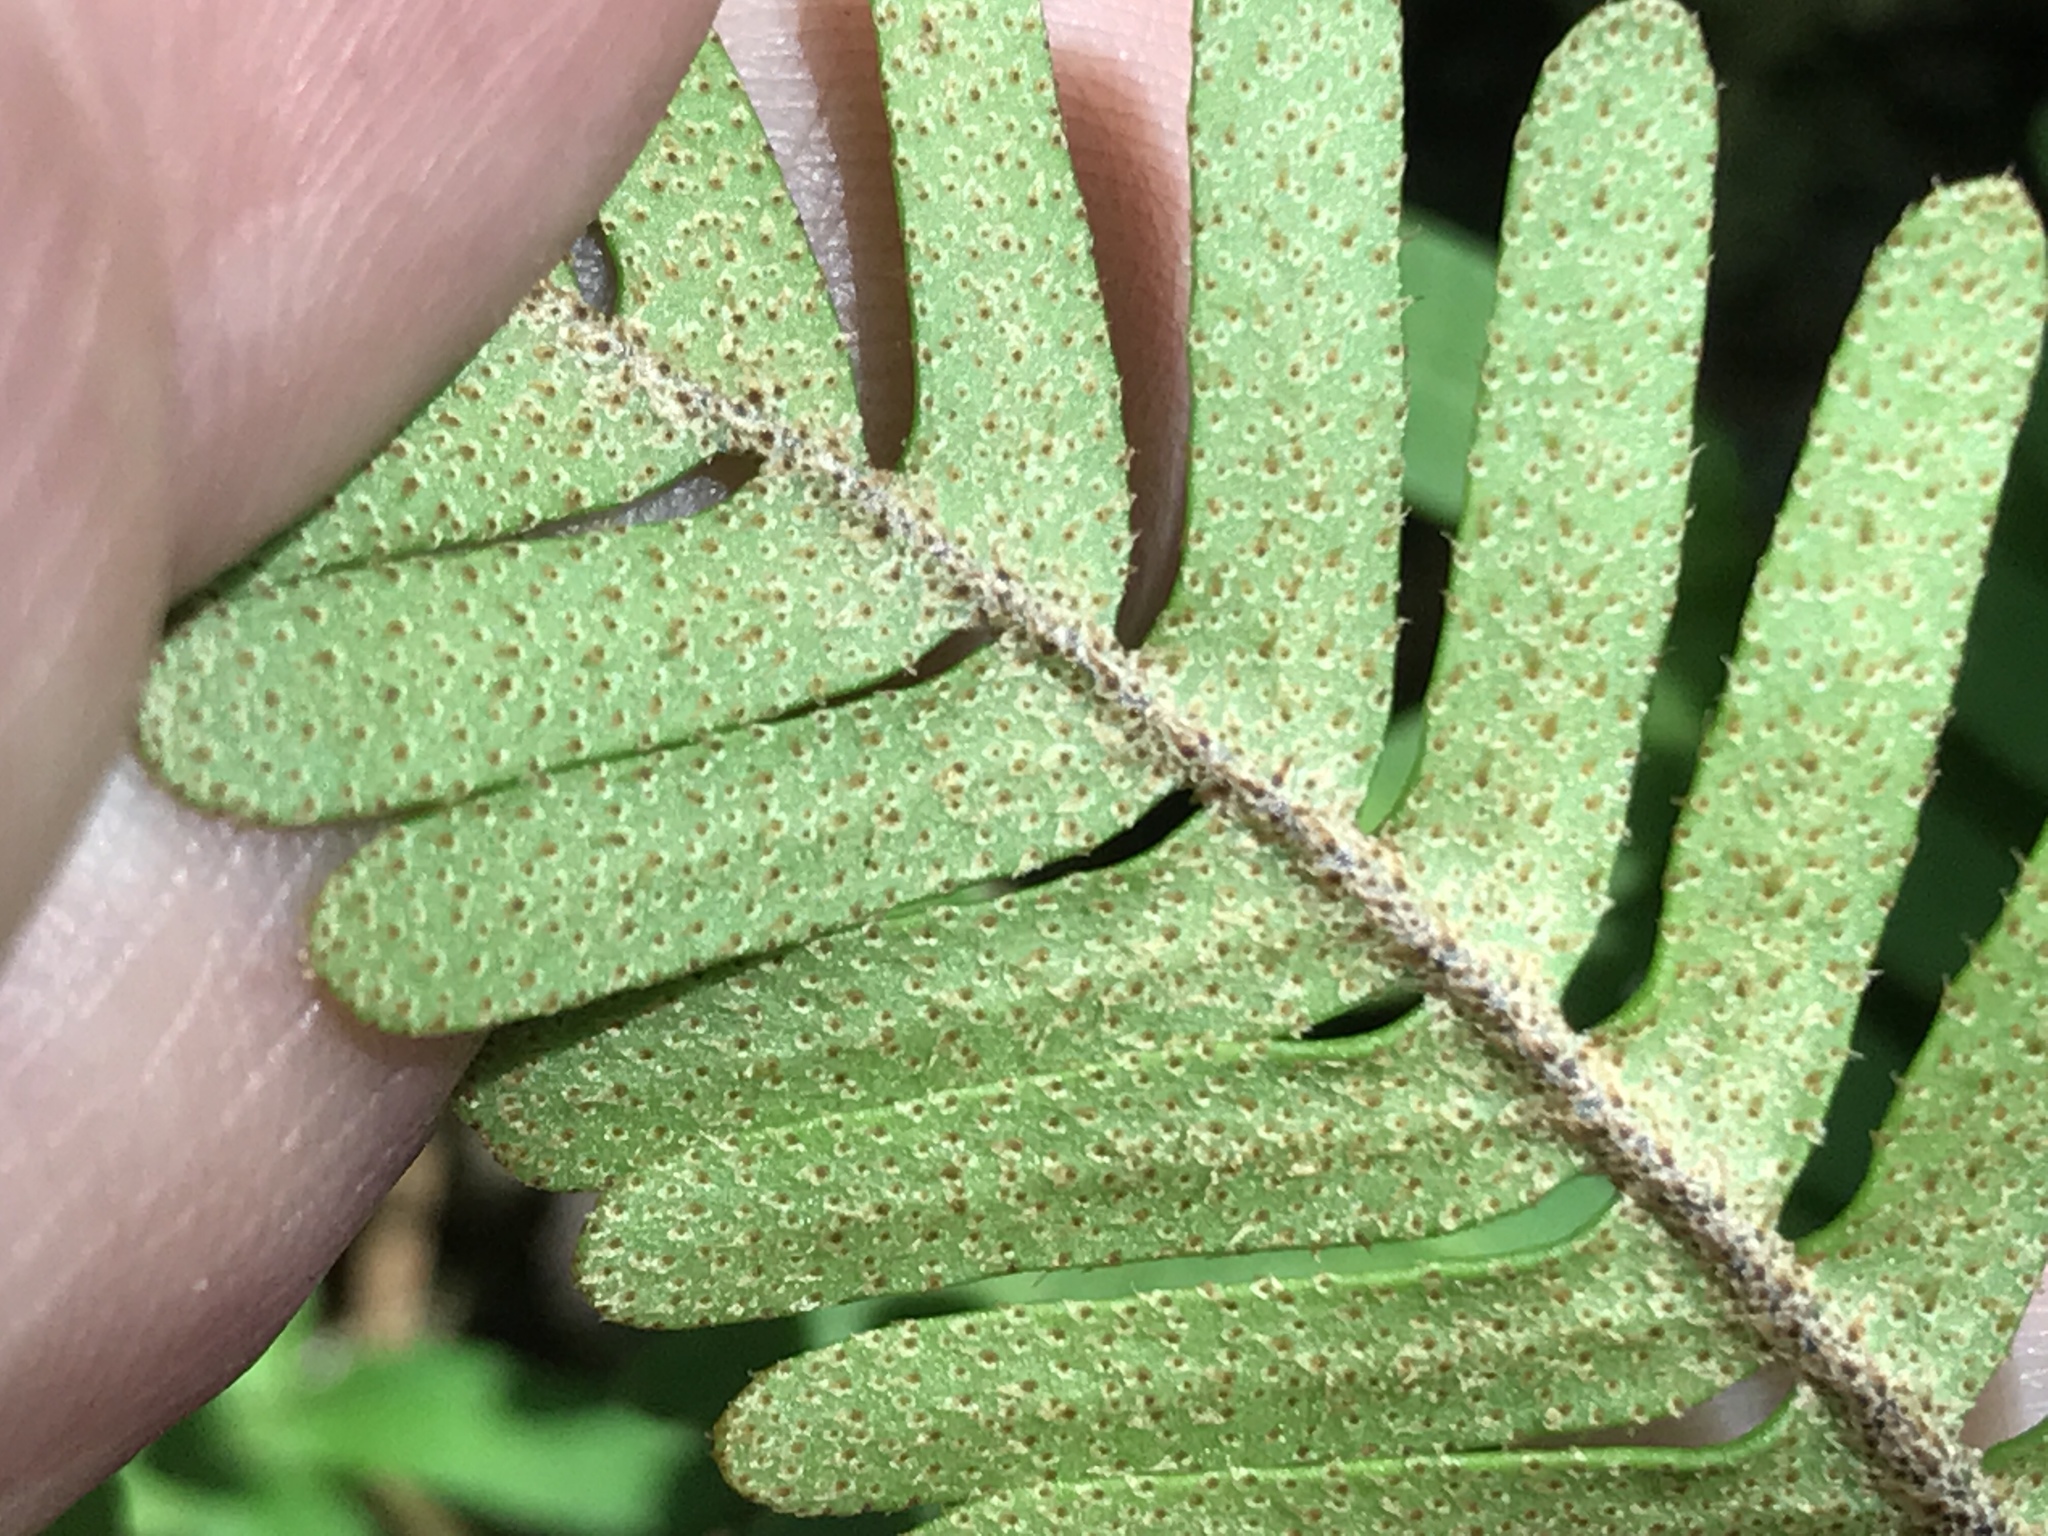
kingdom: Plantae
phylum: Tracheophyta
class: Polypodiopsida
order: Polypodiales
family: Polypodiaceae
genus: Pleopeltis
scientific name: Pleopeltis michauxiana
